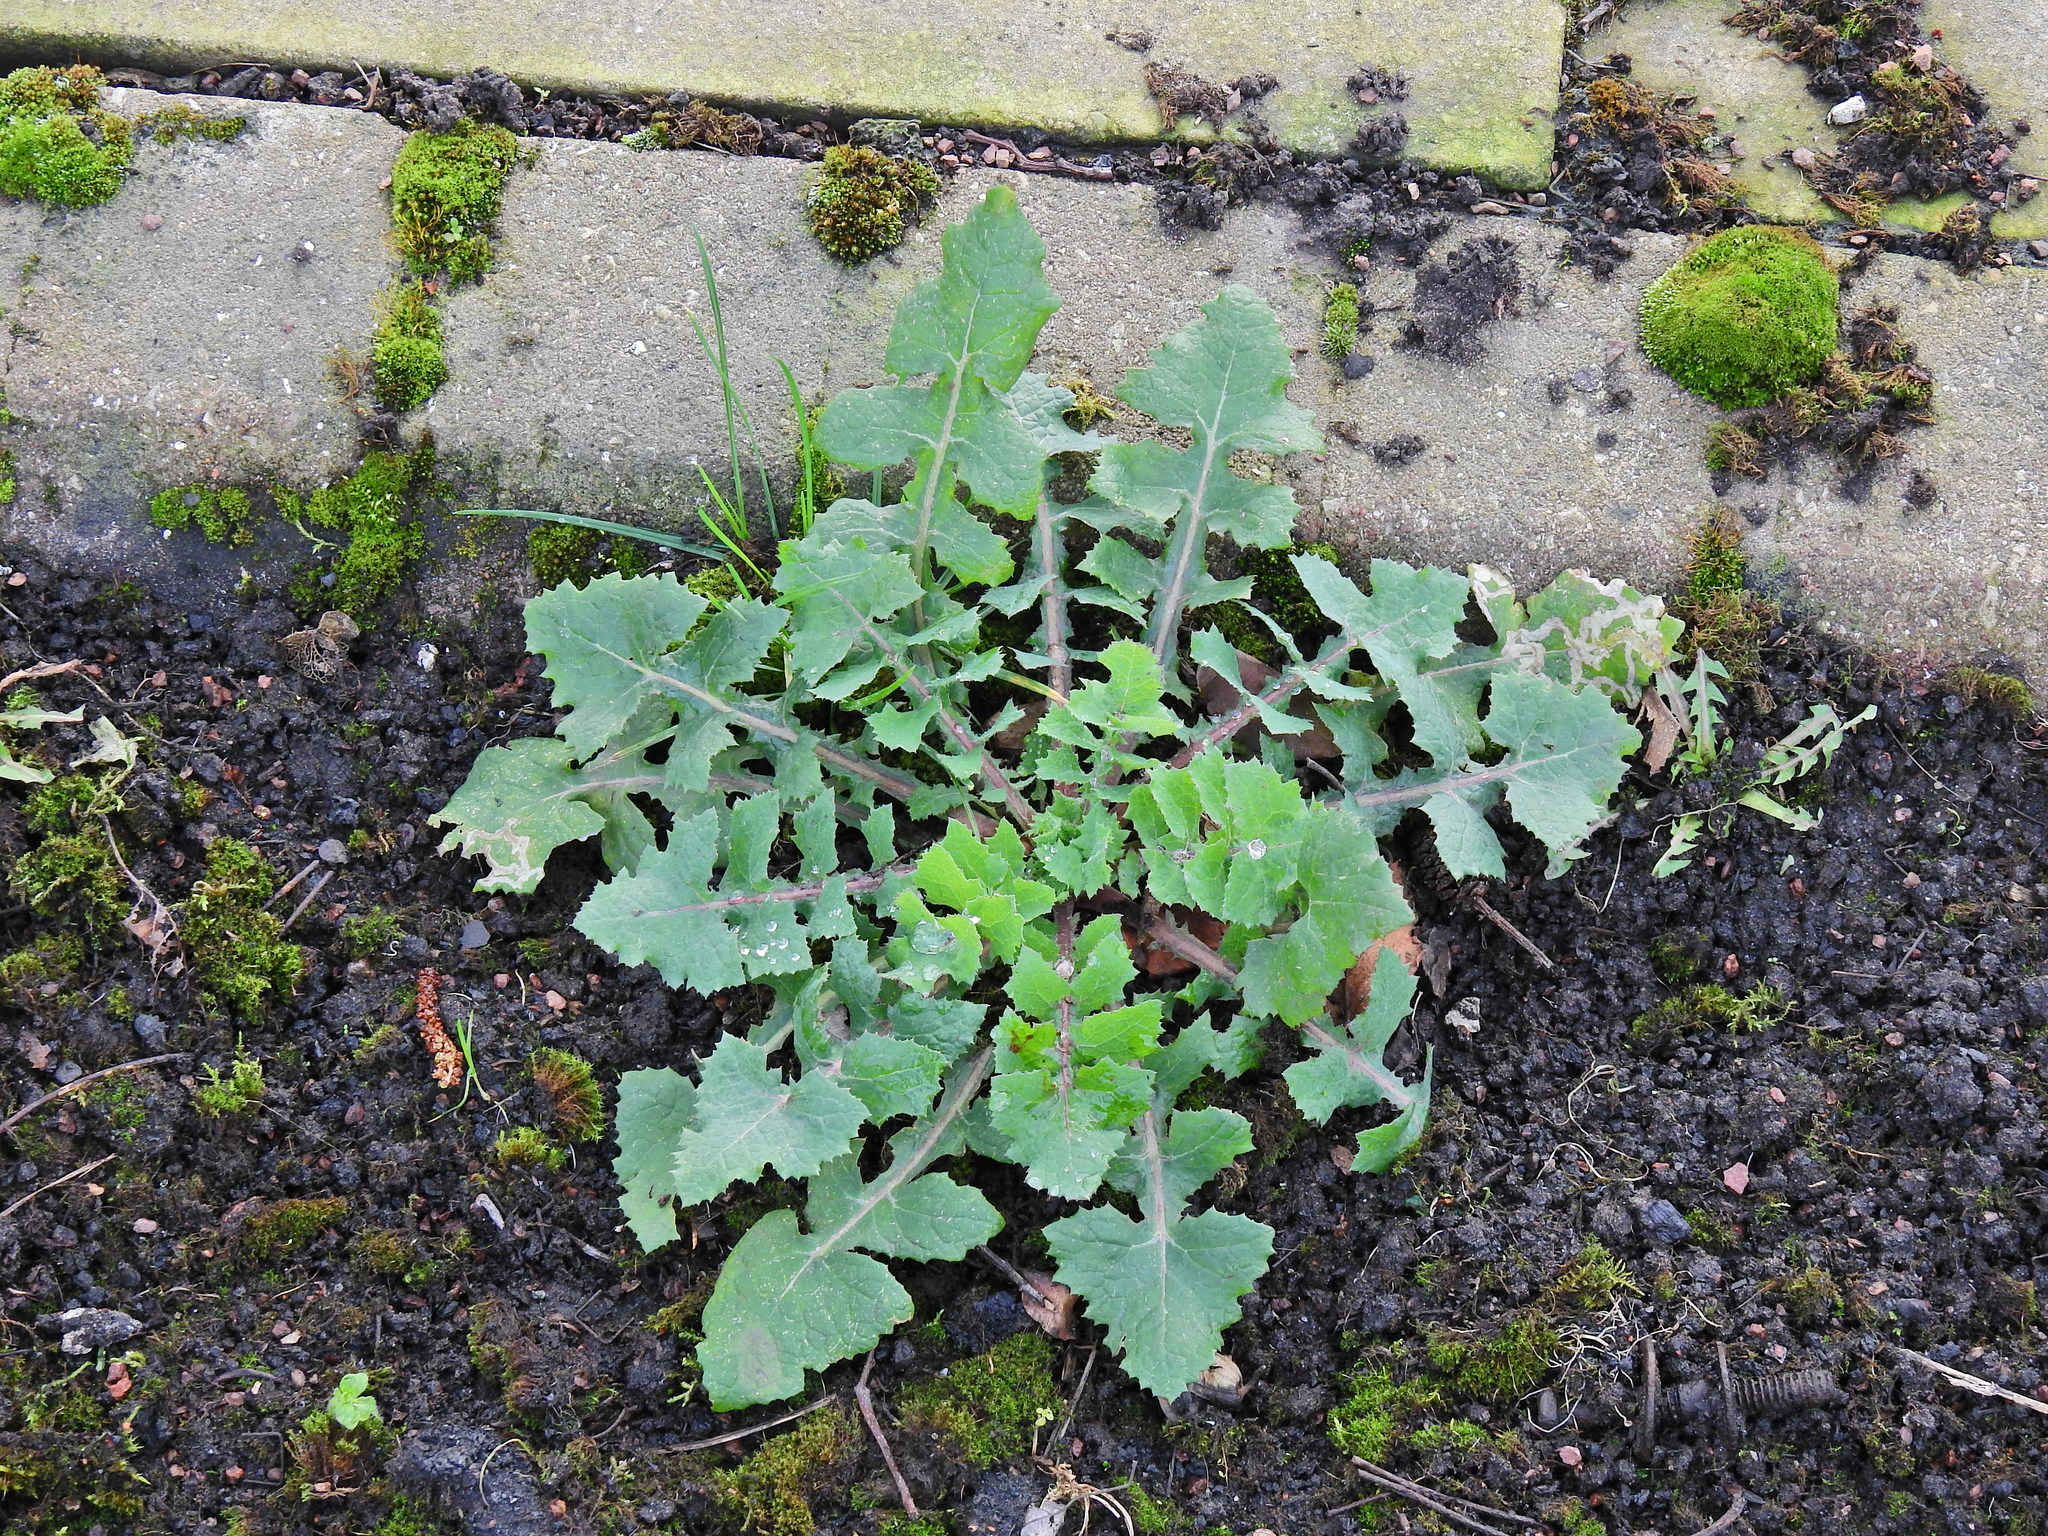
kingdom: Plantae
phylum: Tracheophyta
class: Magnoliopsida
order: Asterales
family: Asteraceae
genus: Sonchus
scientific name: Sonchus oleraceus
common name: Common sowthistle
